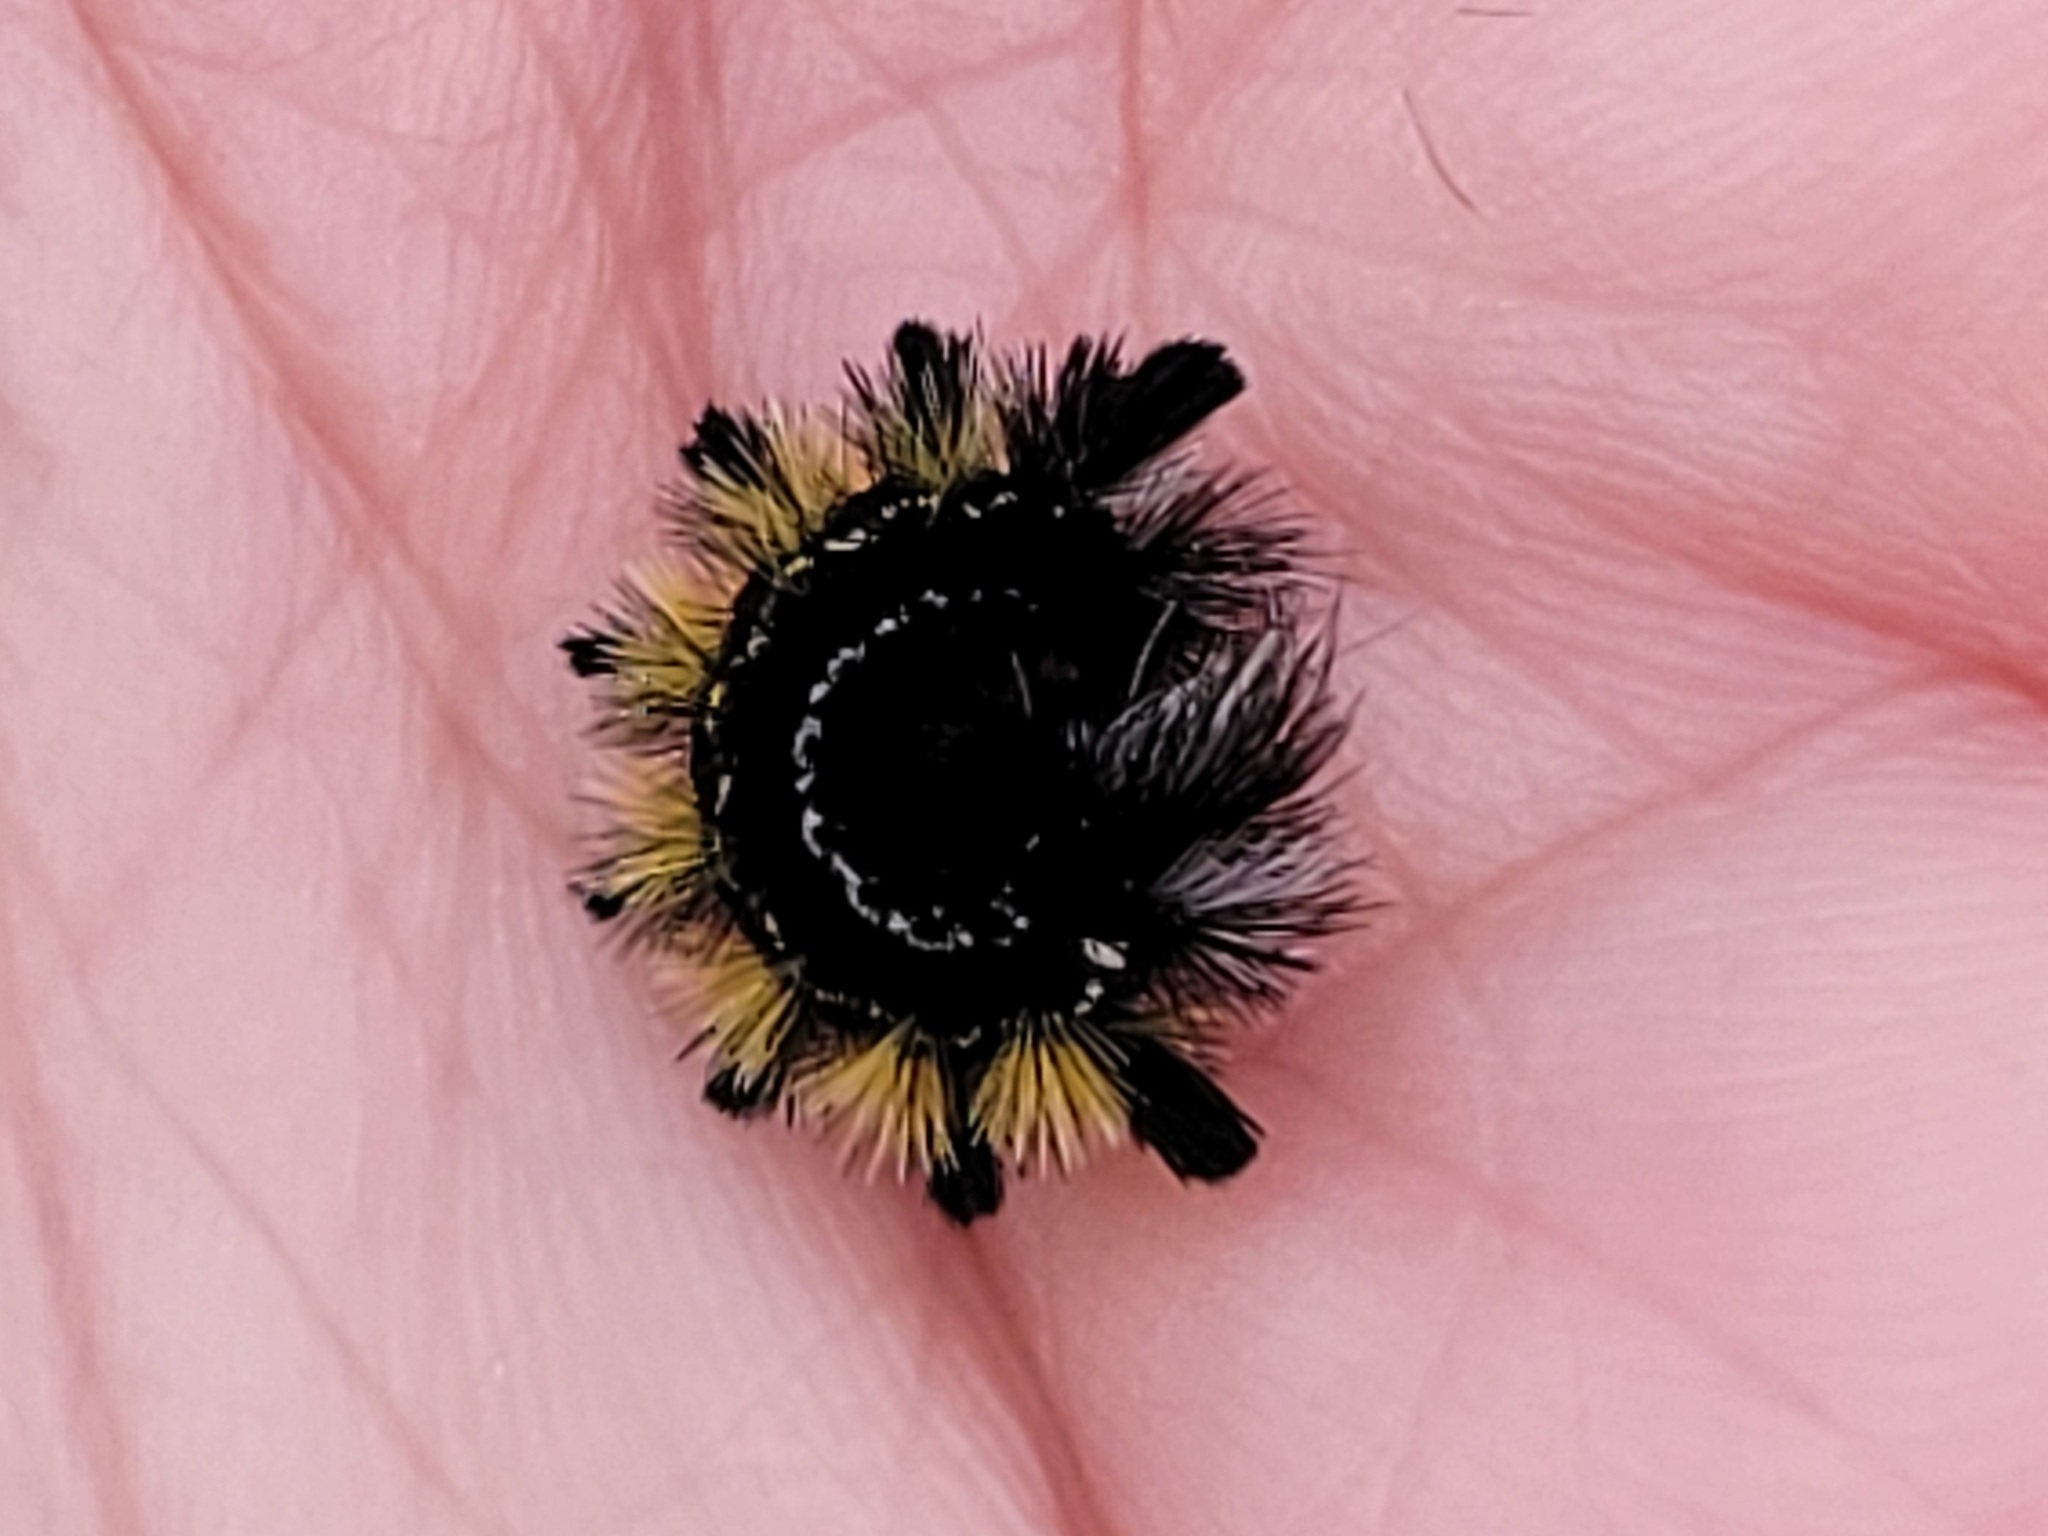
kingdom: Animalia
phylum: Arthropoda
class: Insecta
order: Lepidoptera
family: Erebidae
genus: Ctenucha
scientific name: Ctenucha virginica
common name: Virginia ctenucha moth
